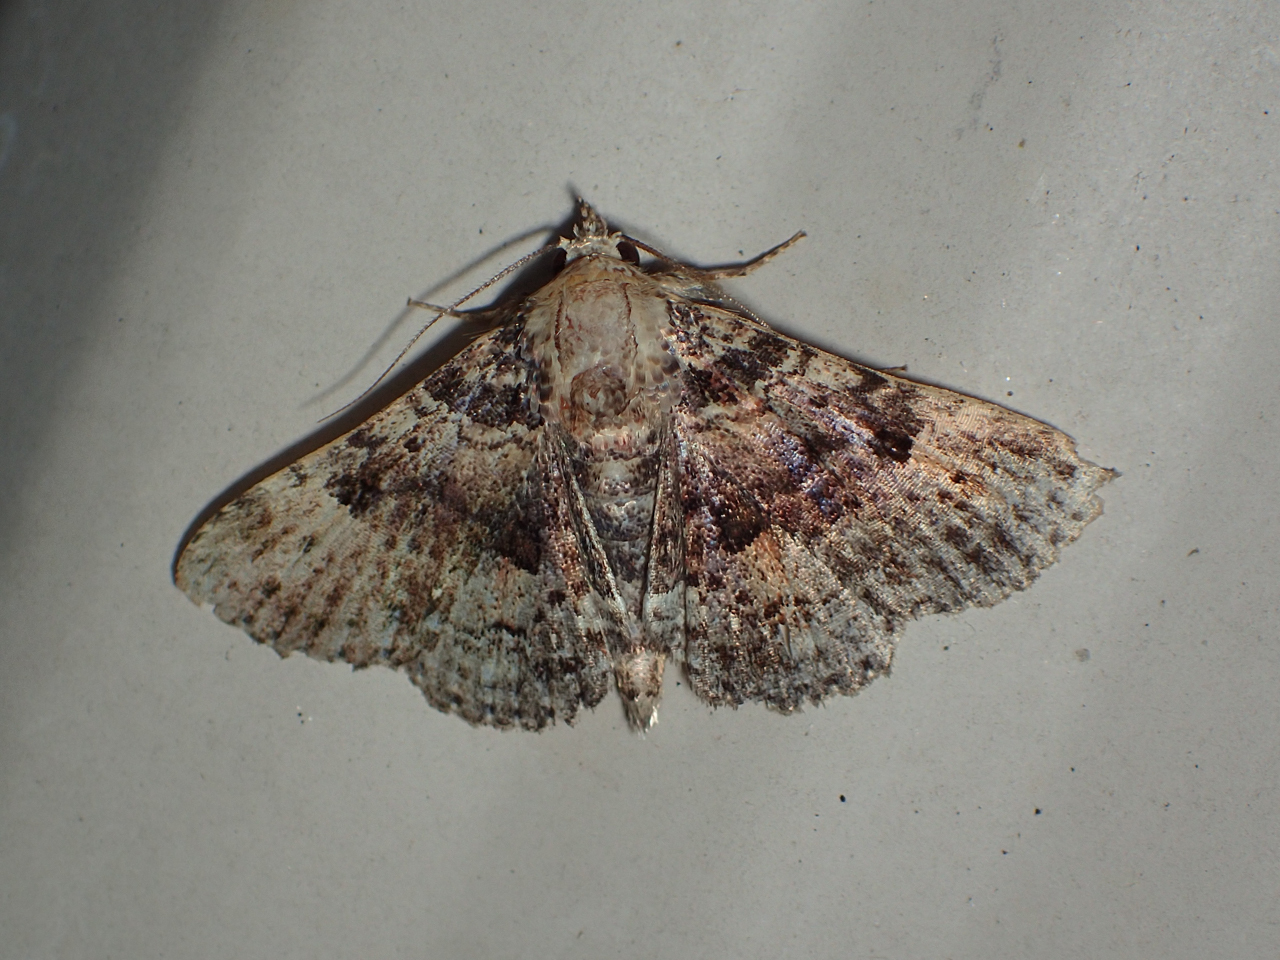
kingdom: Animalia
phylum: Arthropoda
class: Insecta
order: Lepidoptera
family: Erebidae
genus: Metalectra
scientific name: Metalectra discalis
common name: Common fungus moth
